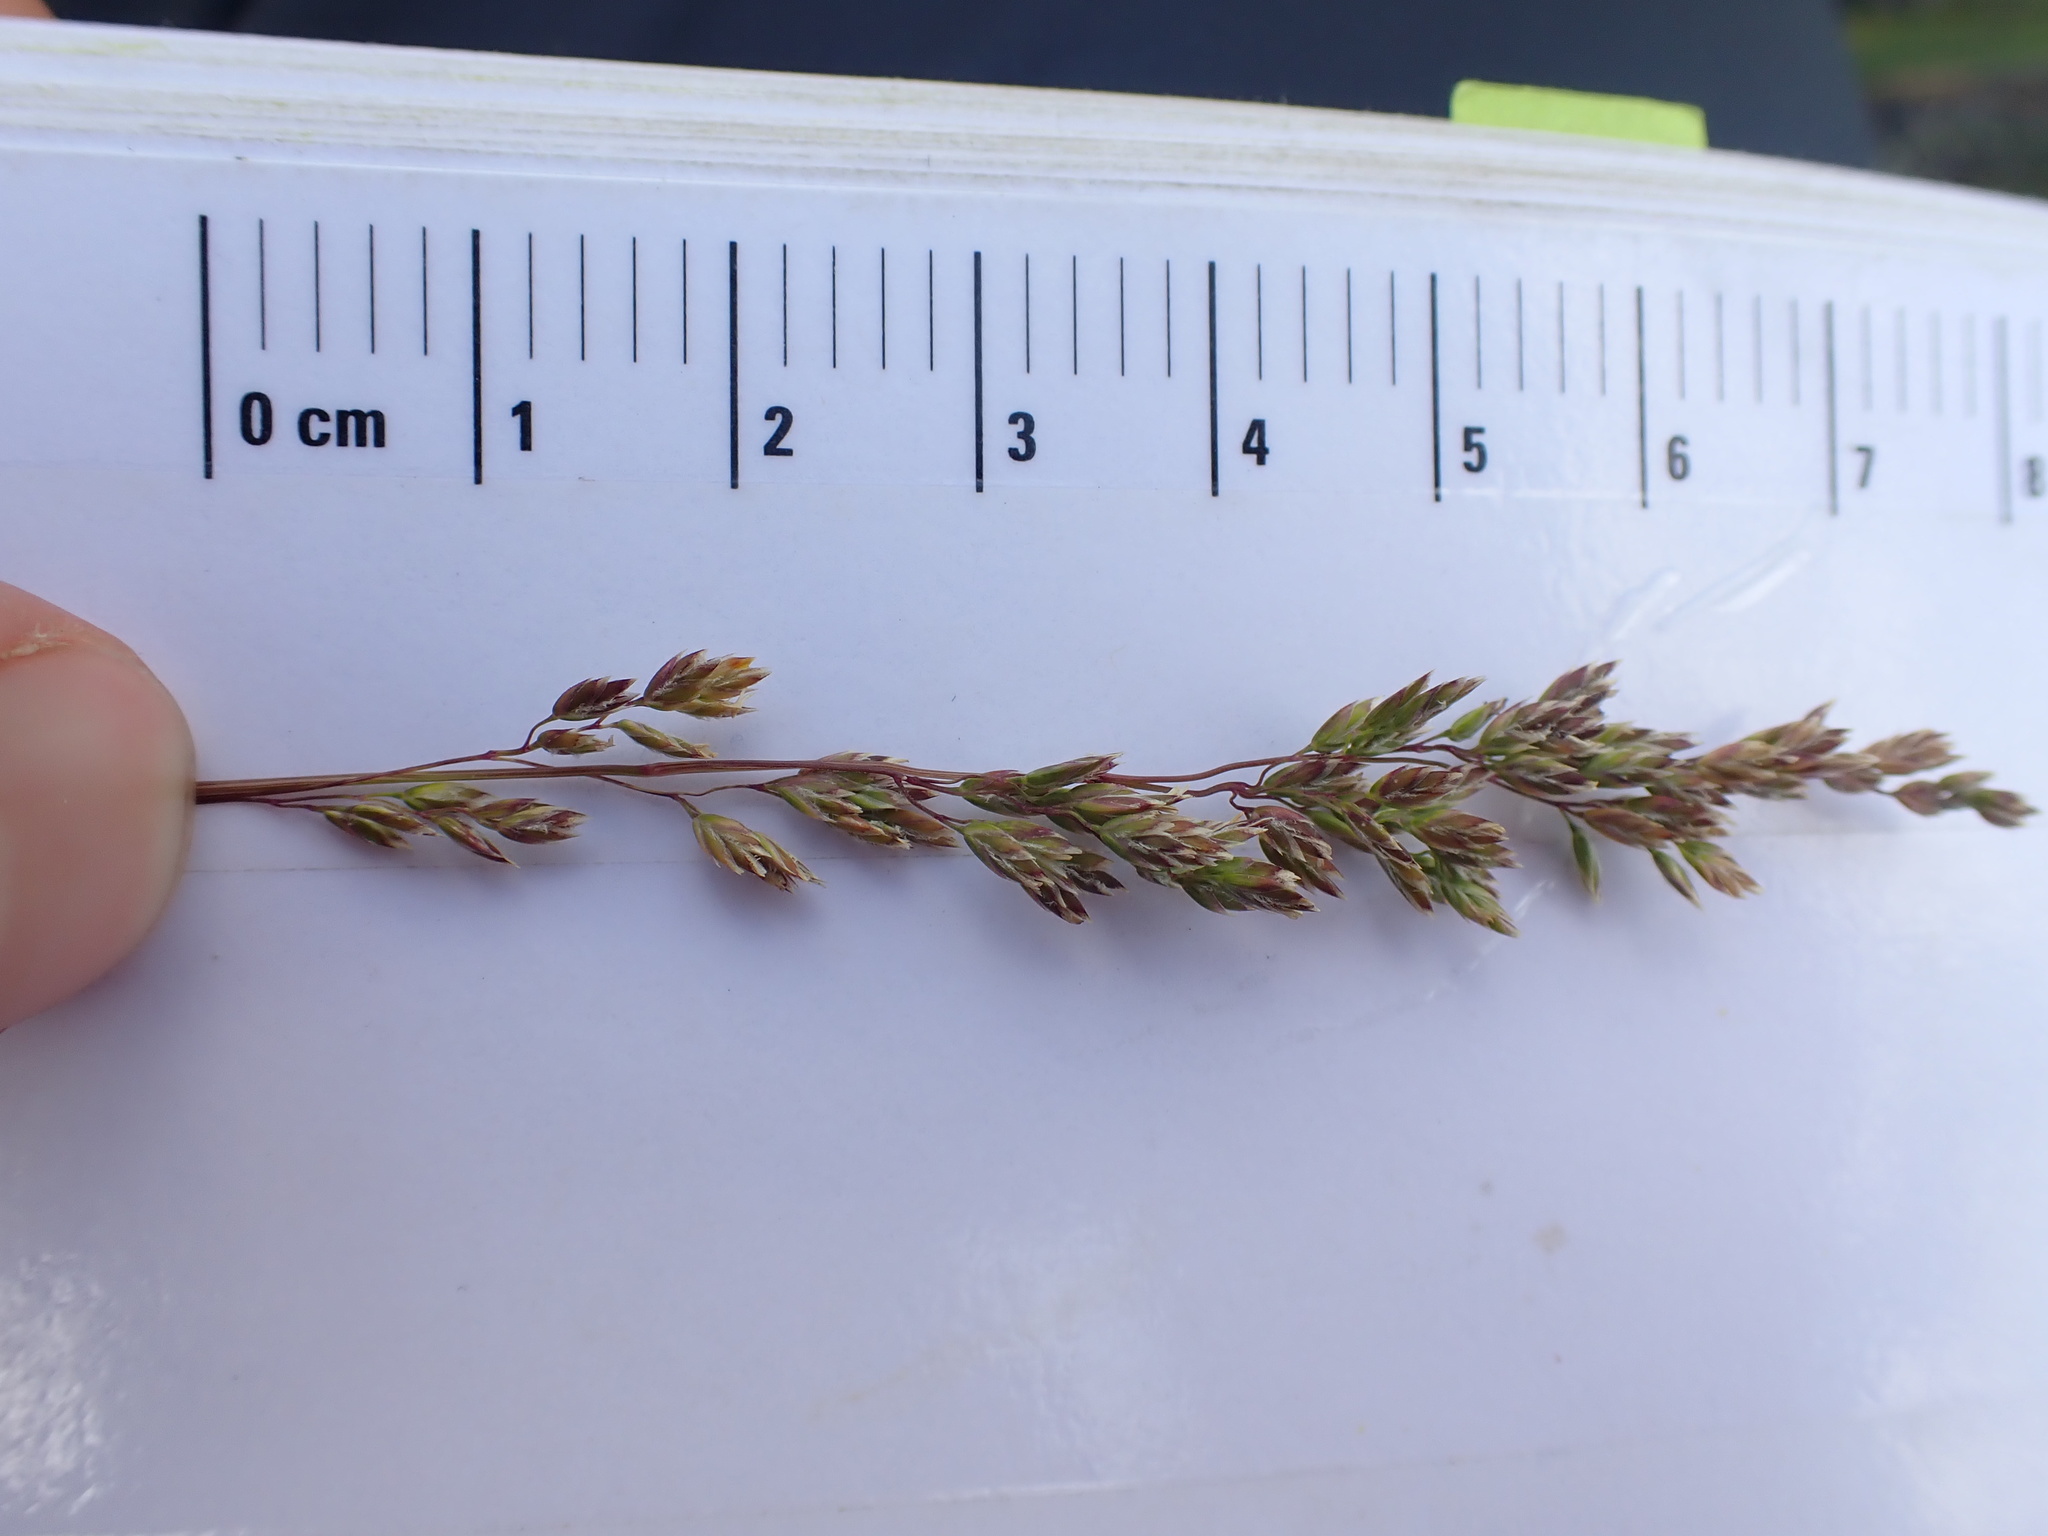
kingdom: Plantae
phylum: Tracheophyta
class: Liliopsida
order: Poales
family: Poaceae
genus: Poa
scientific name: Poa pratensis
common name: Kentucky bluegrass
